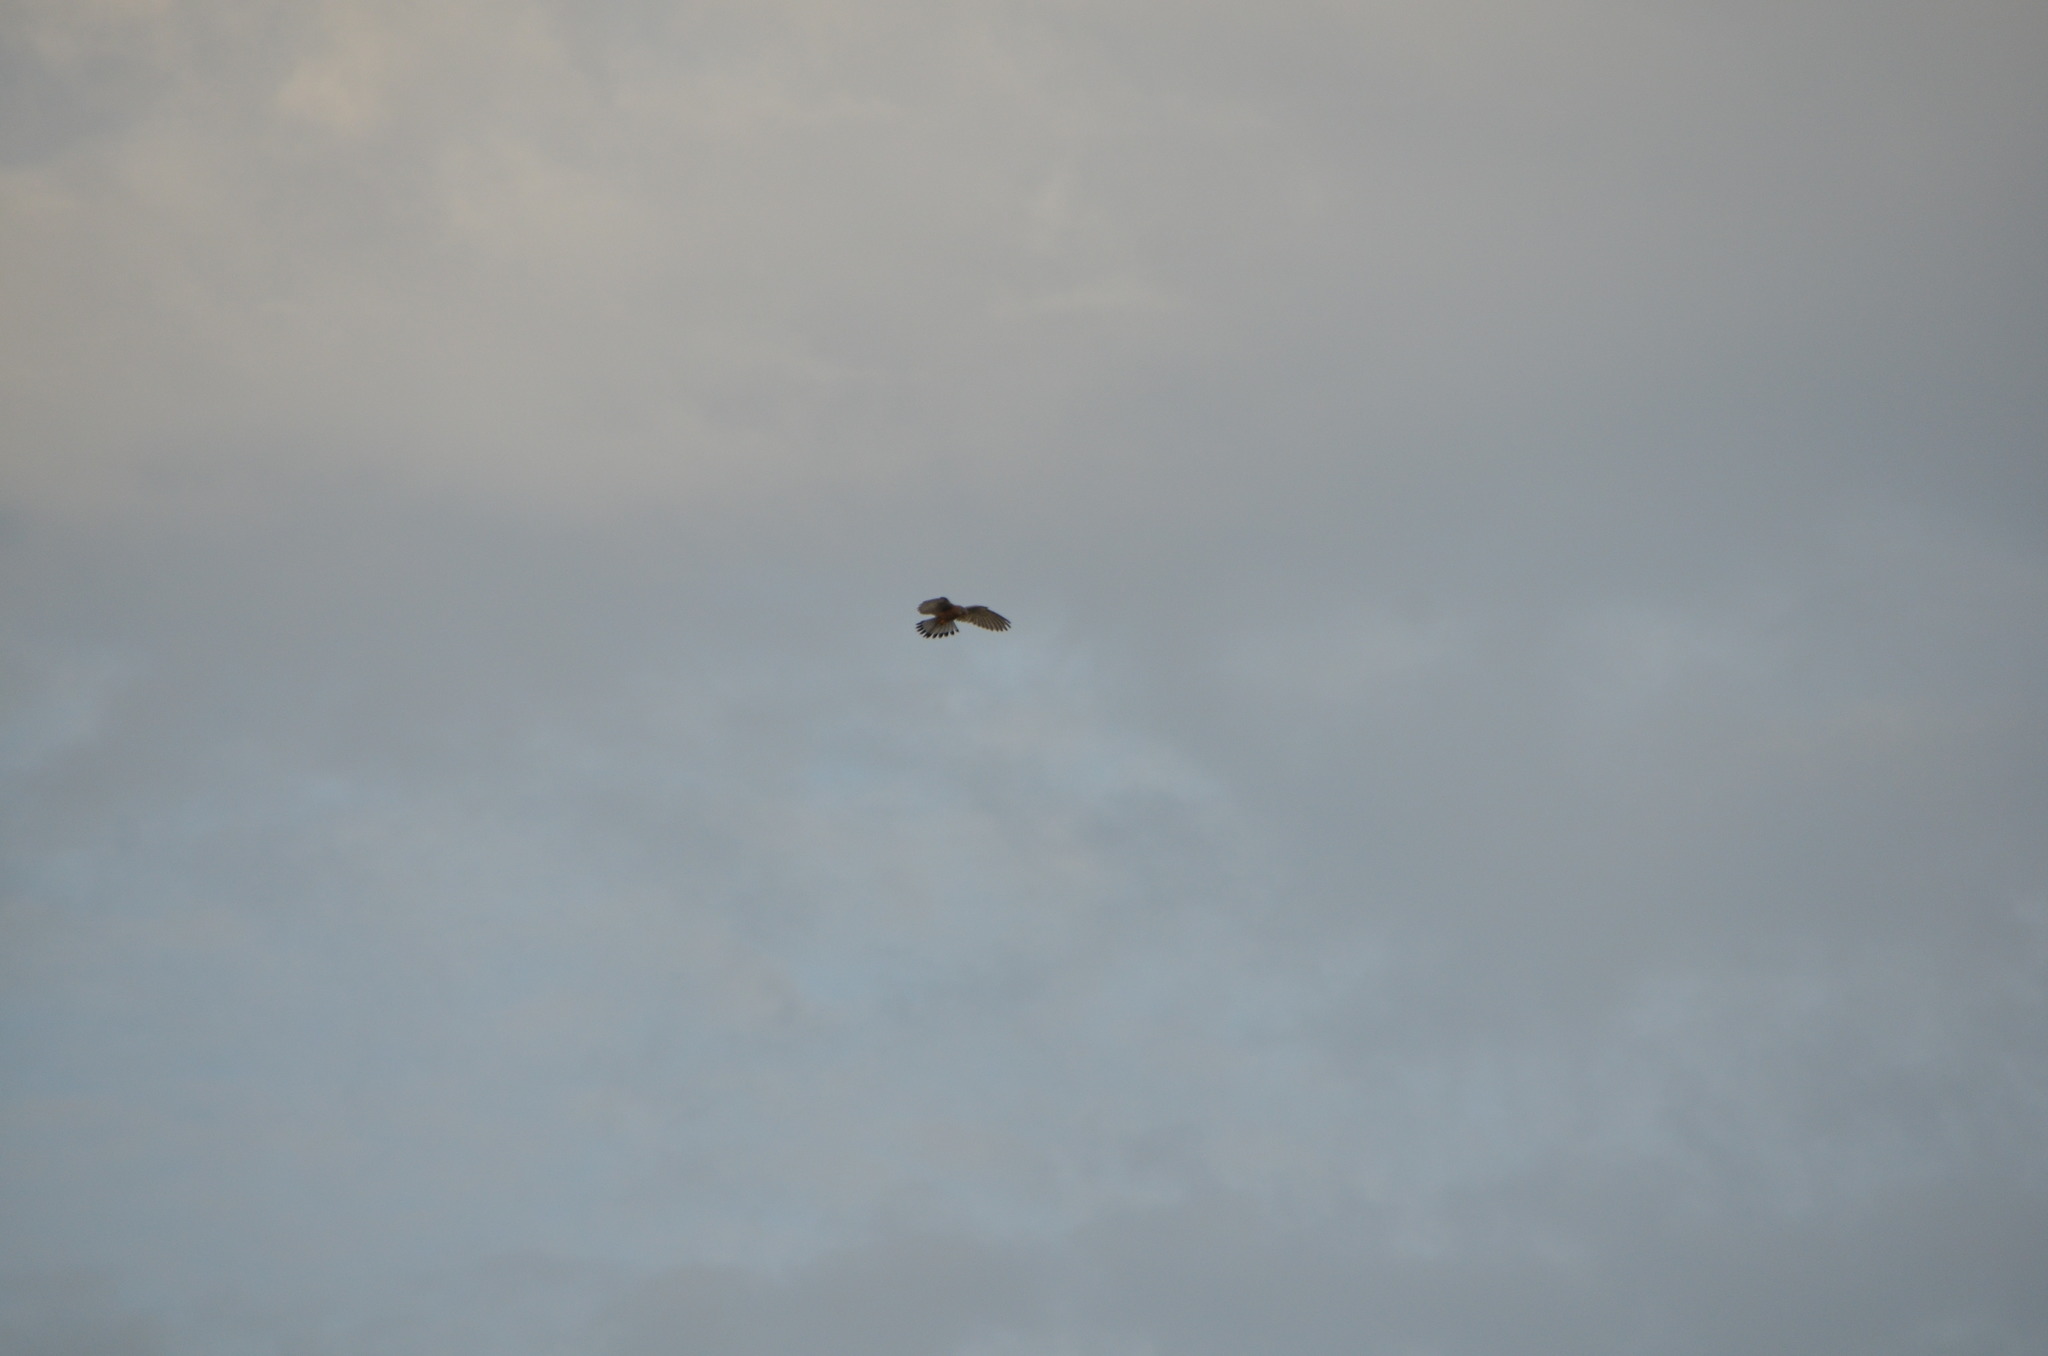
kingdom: Animalia
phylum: Chordata
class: Aves
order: Falconiformes
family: Falconidae
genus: Falco
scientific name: Falco tinnunculus
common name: Common kestrel
